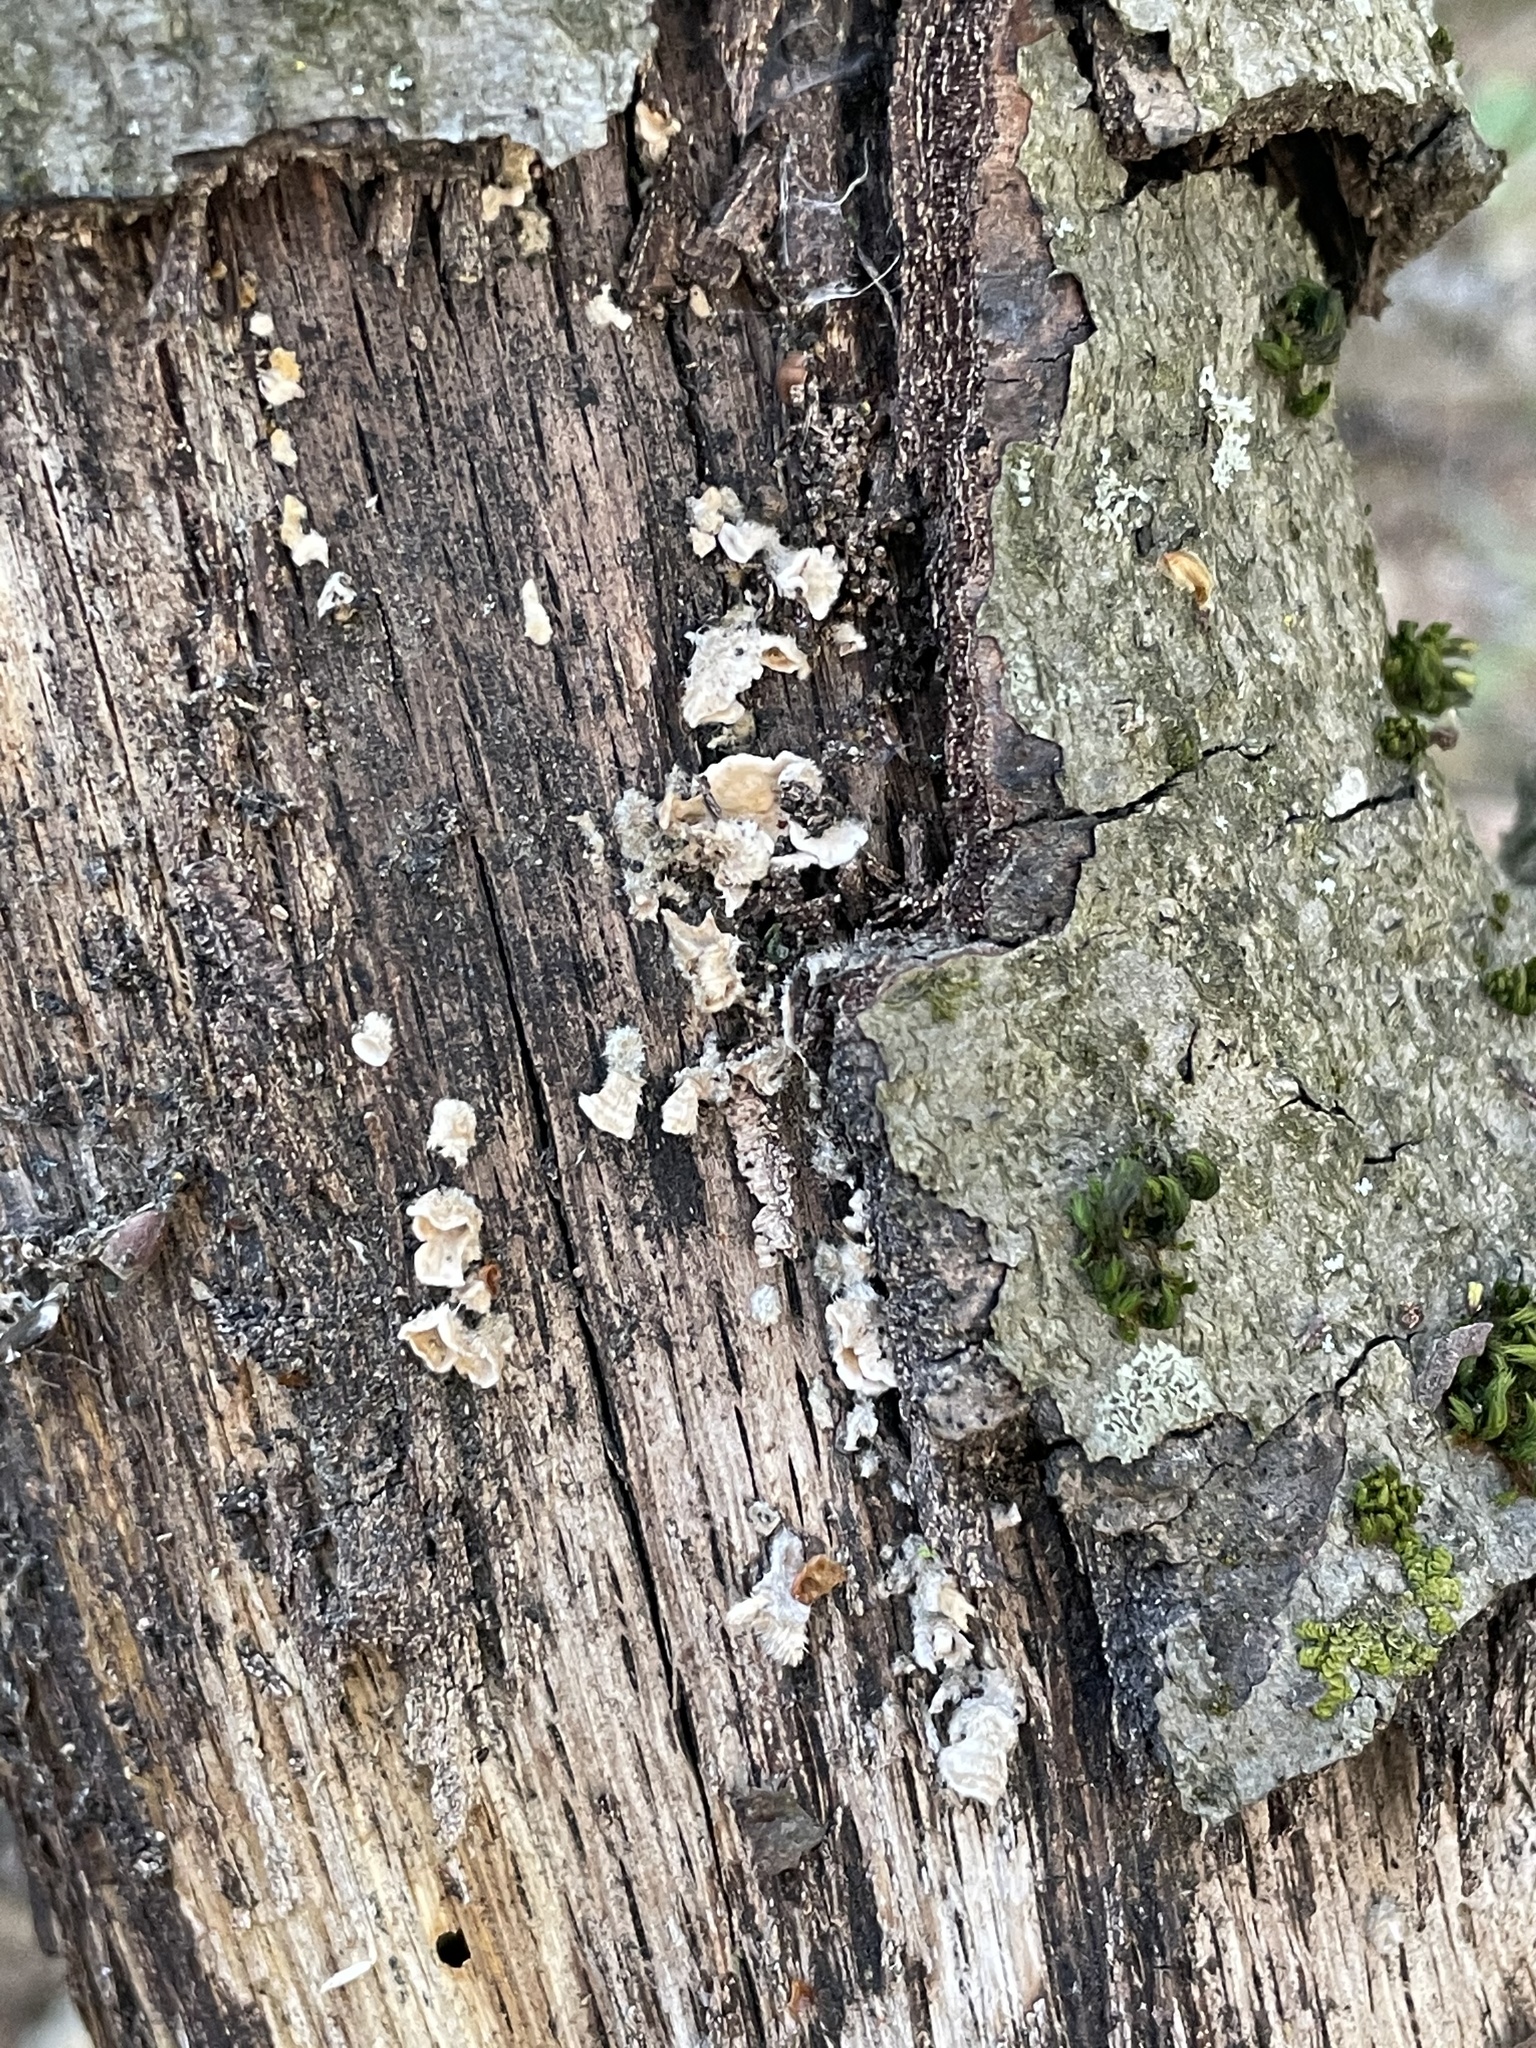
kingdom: Fungi
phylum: Basidiomycota
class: Agaricomycetes
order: Russulales
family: Stereaceae
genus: Stereum
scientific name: Stereum ochraceoflavum
